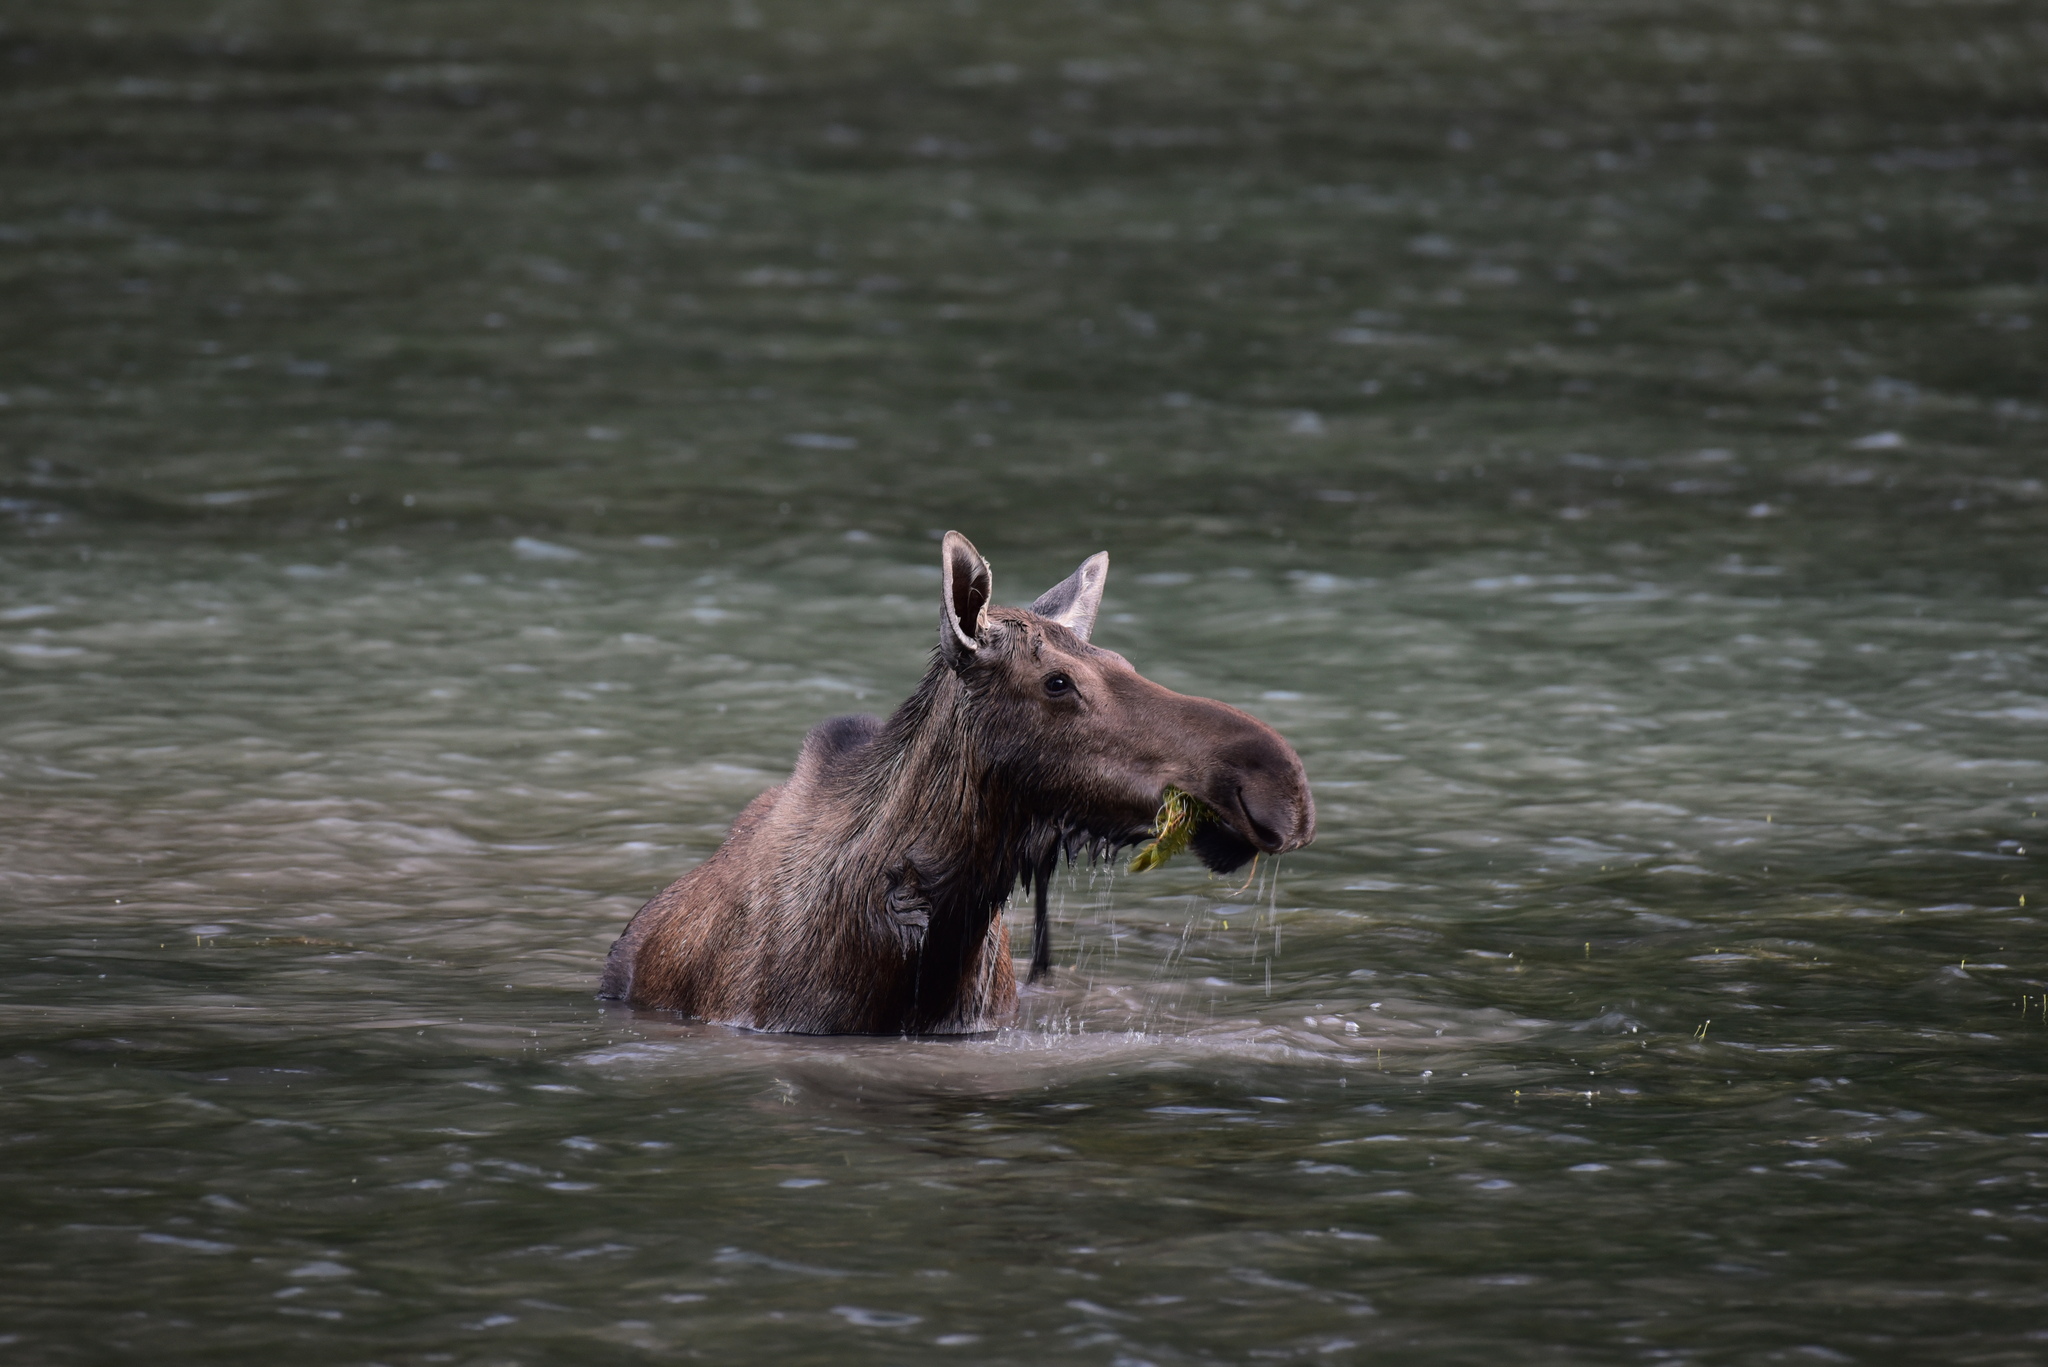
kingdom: Animalia
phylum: Chordata
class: Mammalia
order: Artiodactyla
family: Cervidae
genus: Alces
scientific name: Alces americanus
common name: Moose
